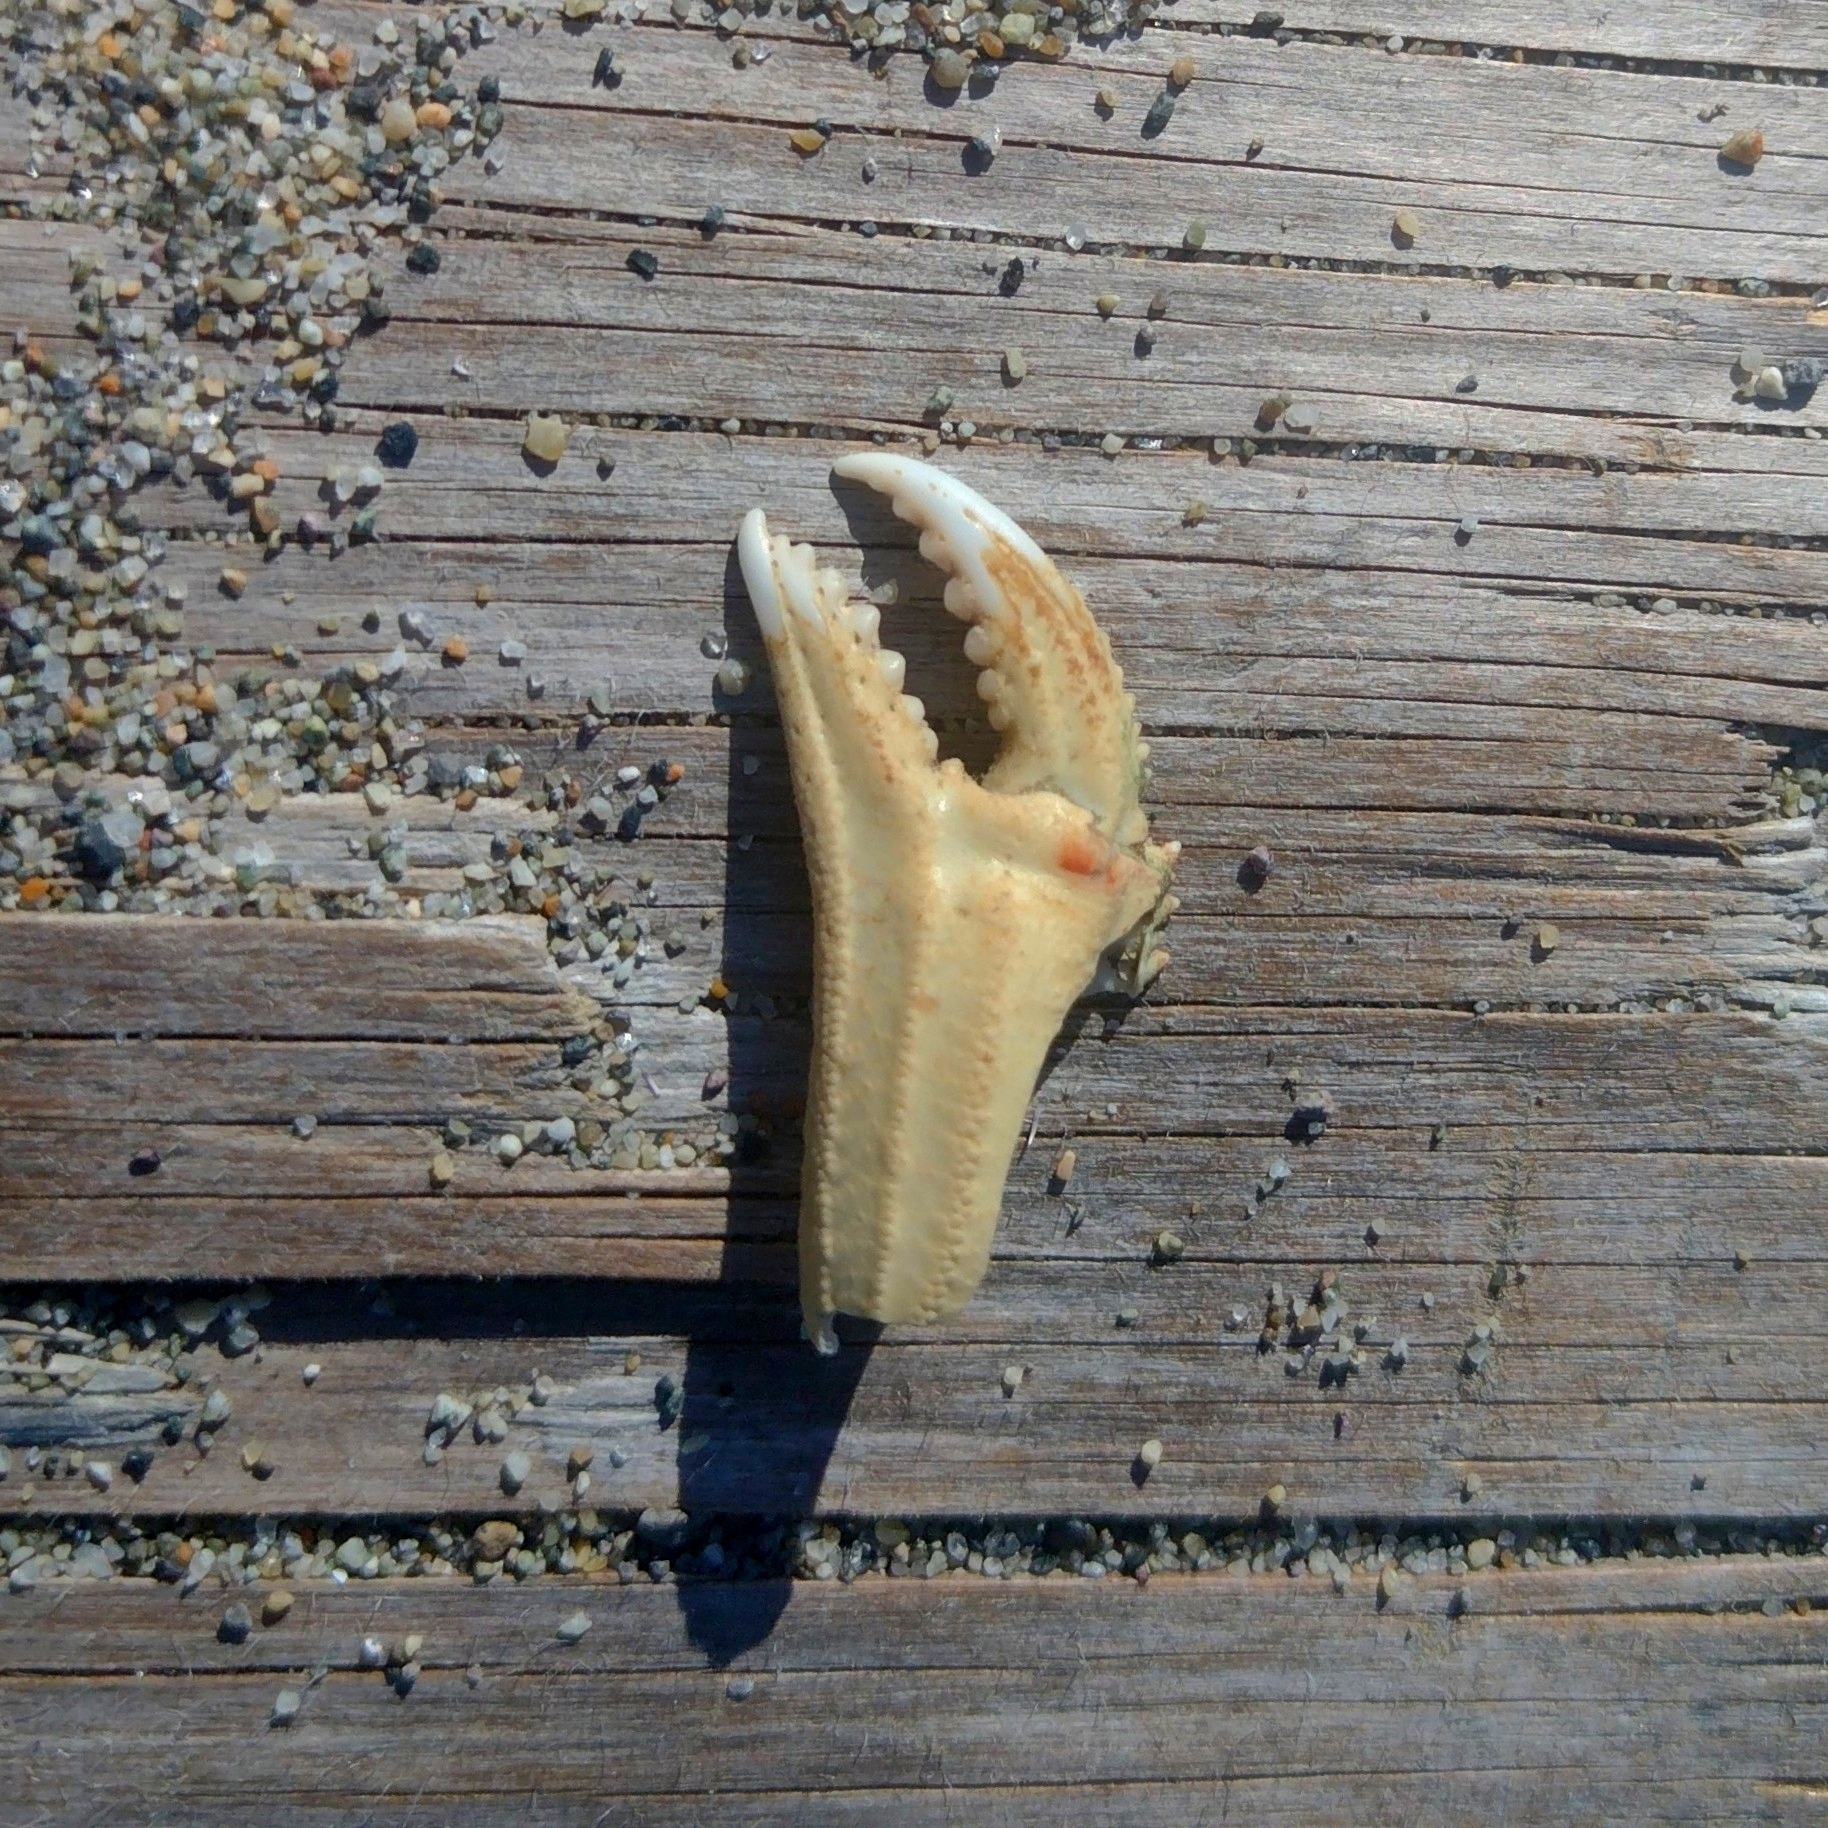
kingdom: Animalia
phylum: Arthropoda
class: Malacostraca
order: Decapoda
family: Cancridae
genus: Metacarcinus
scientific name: Metacarcinus magister
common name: Californian crab
